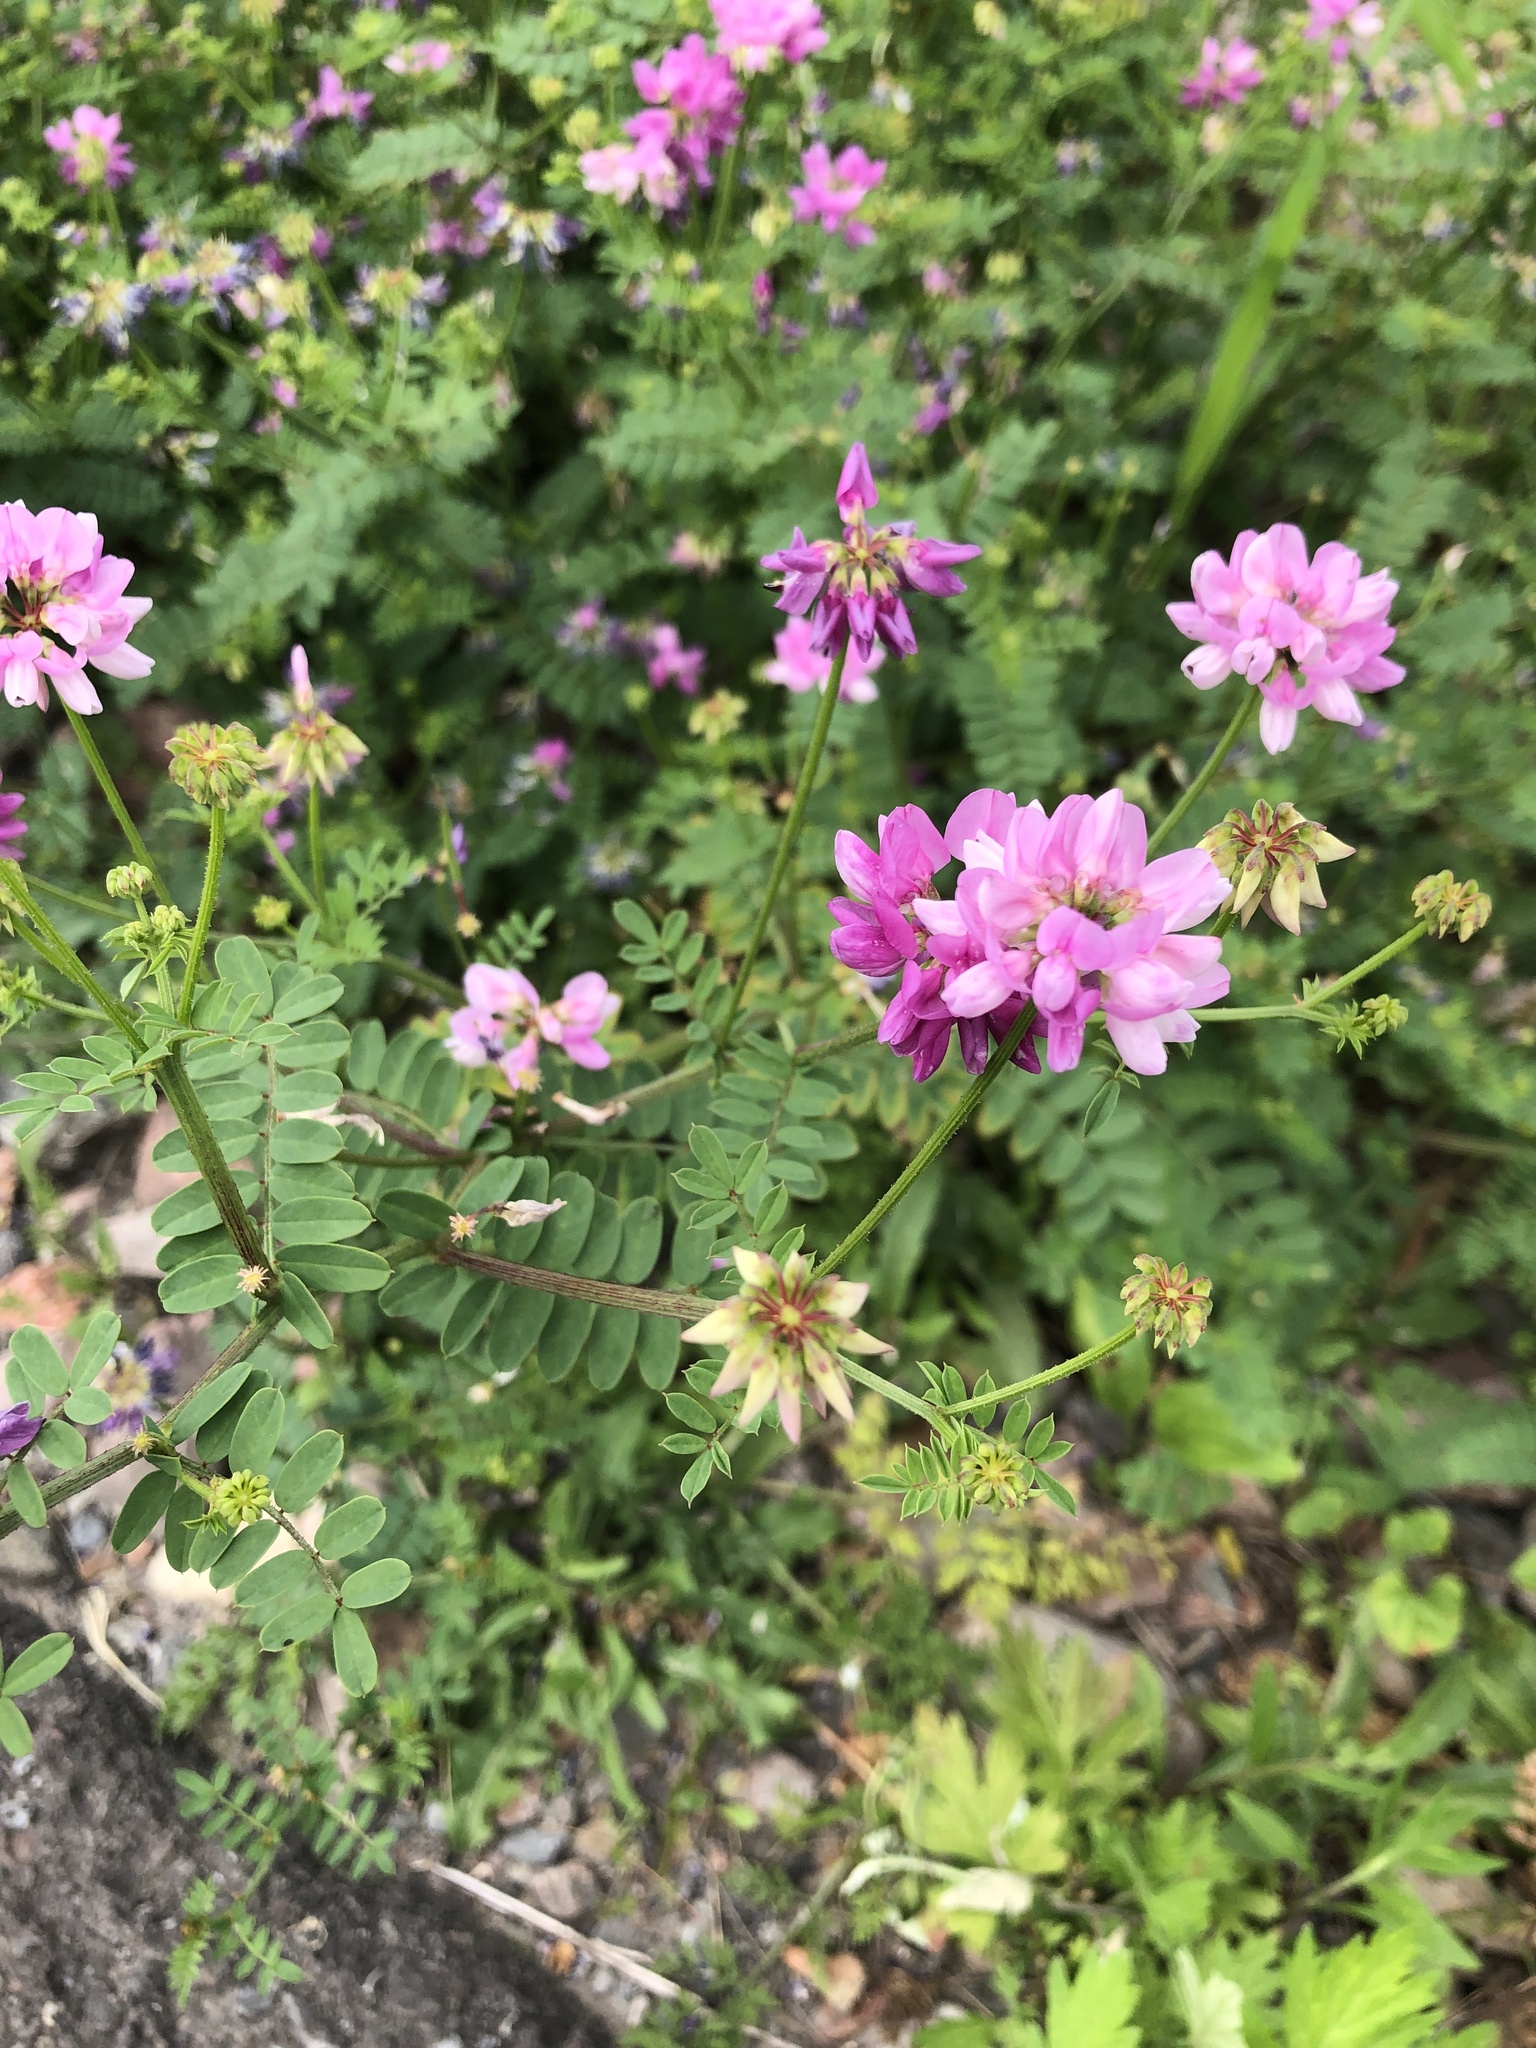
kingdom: Plantae
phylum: Tracheophyta
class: Magnoliopsida
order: Fabales
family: Fabaceae
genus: Coronilla
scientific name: Coronilla varia
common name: Crownvetch
